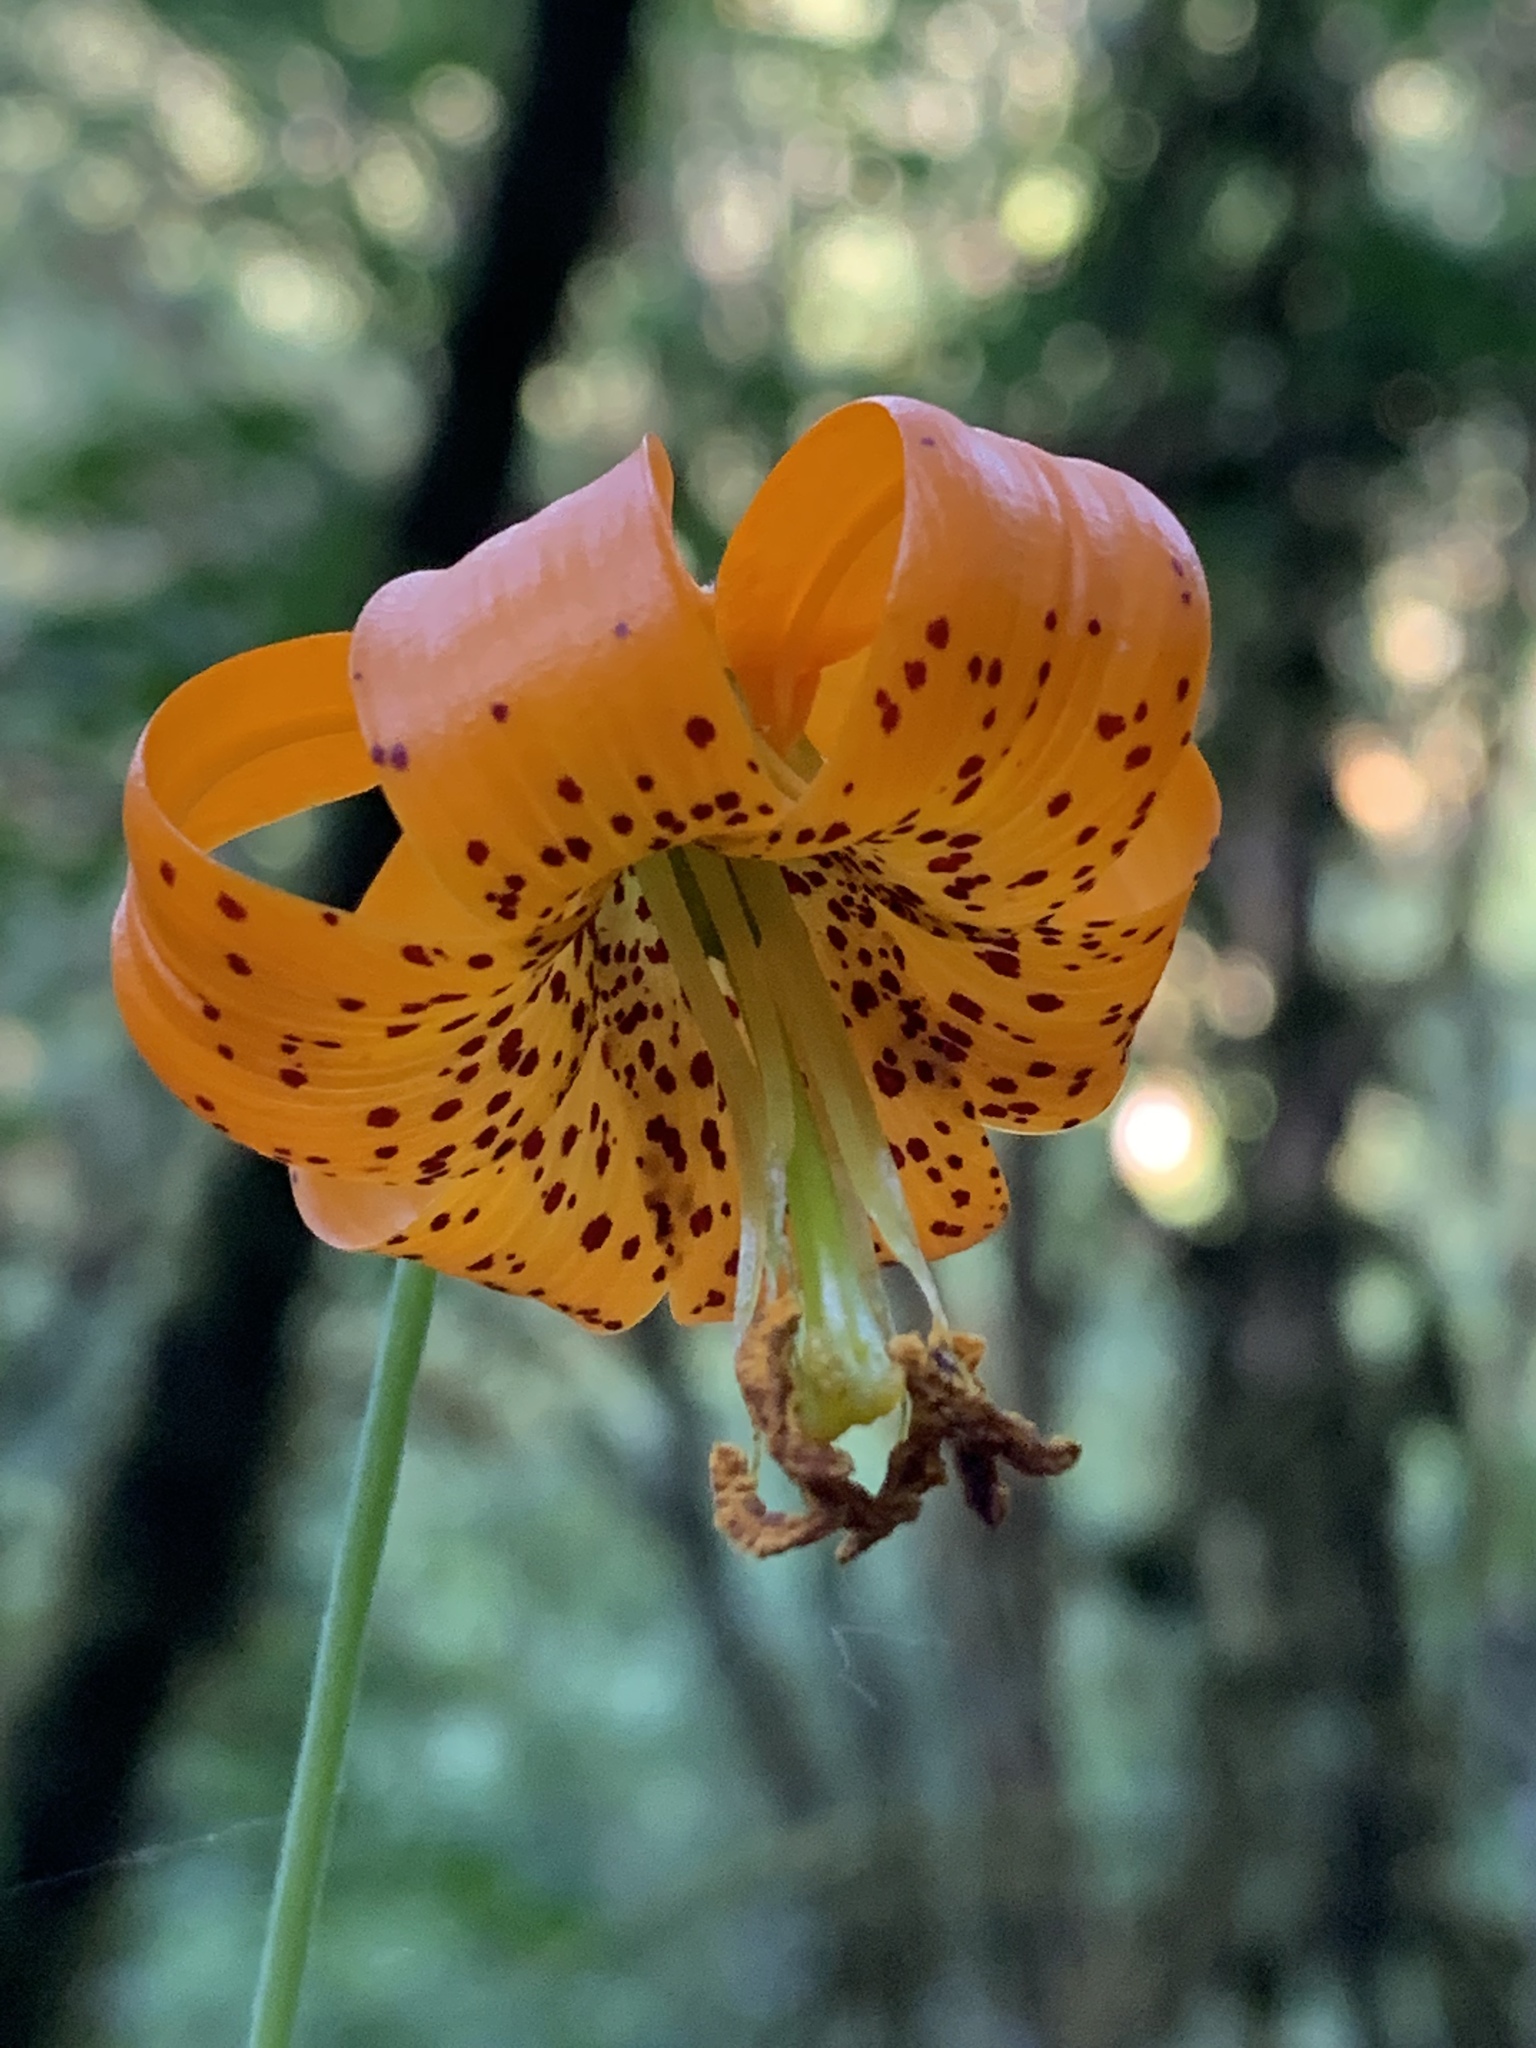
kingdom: Plantae
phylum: Tracheophyta
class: Liliopsida
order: Liliales
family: Liliaceae
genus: Lilium
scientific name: Lilium columbianum
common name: Columbia lily
